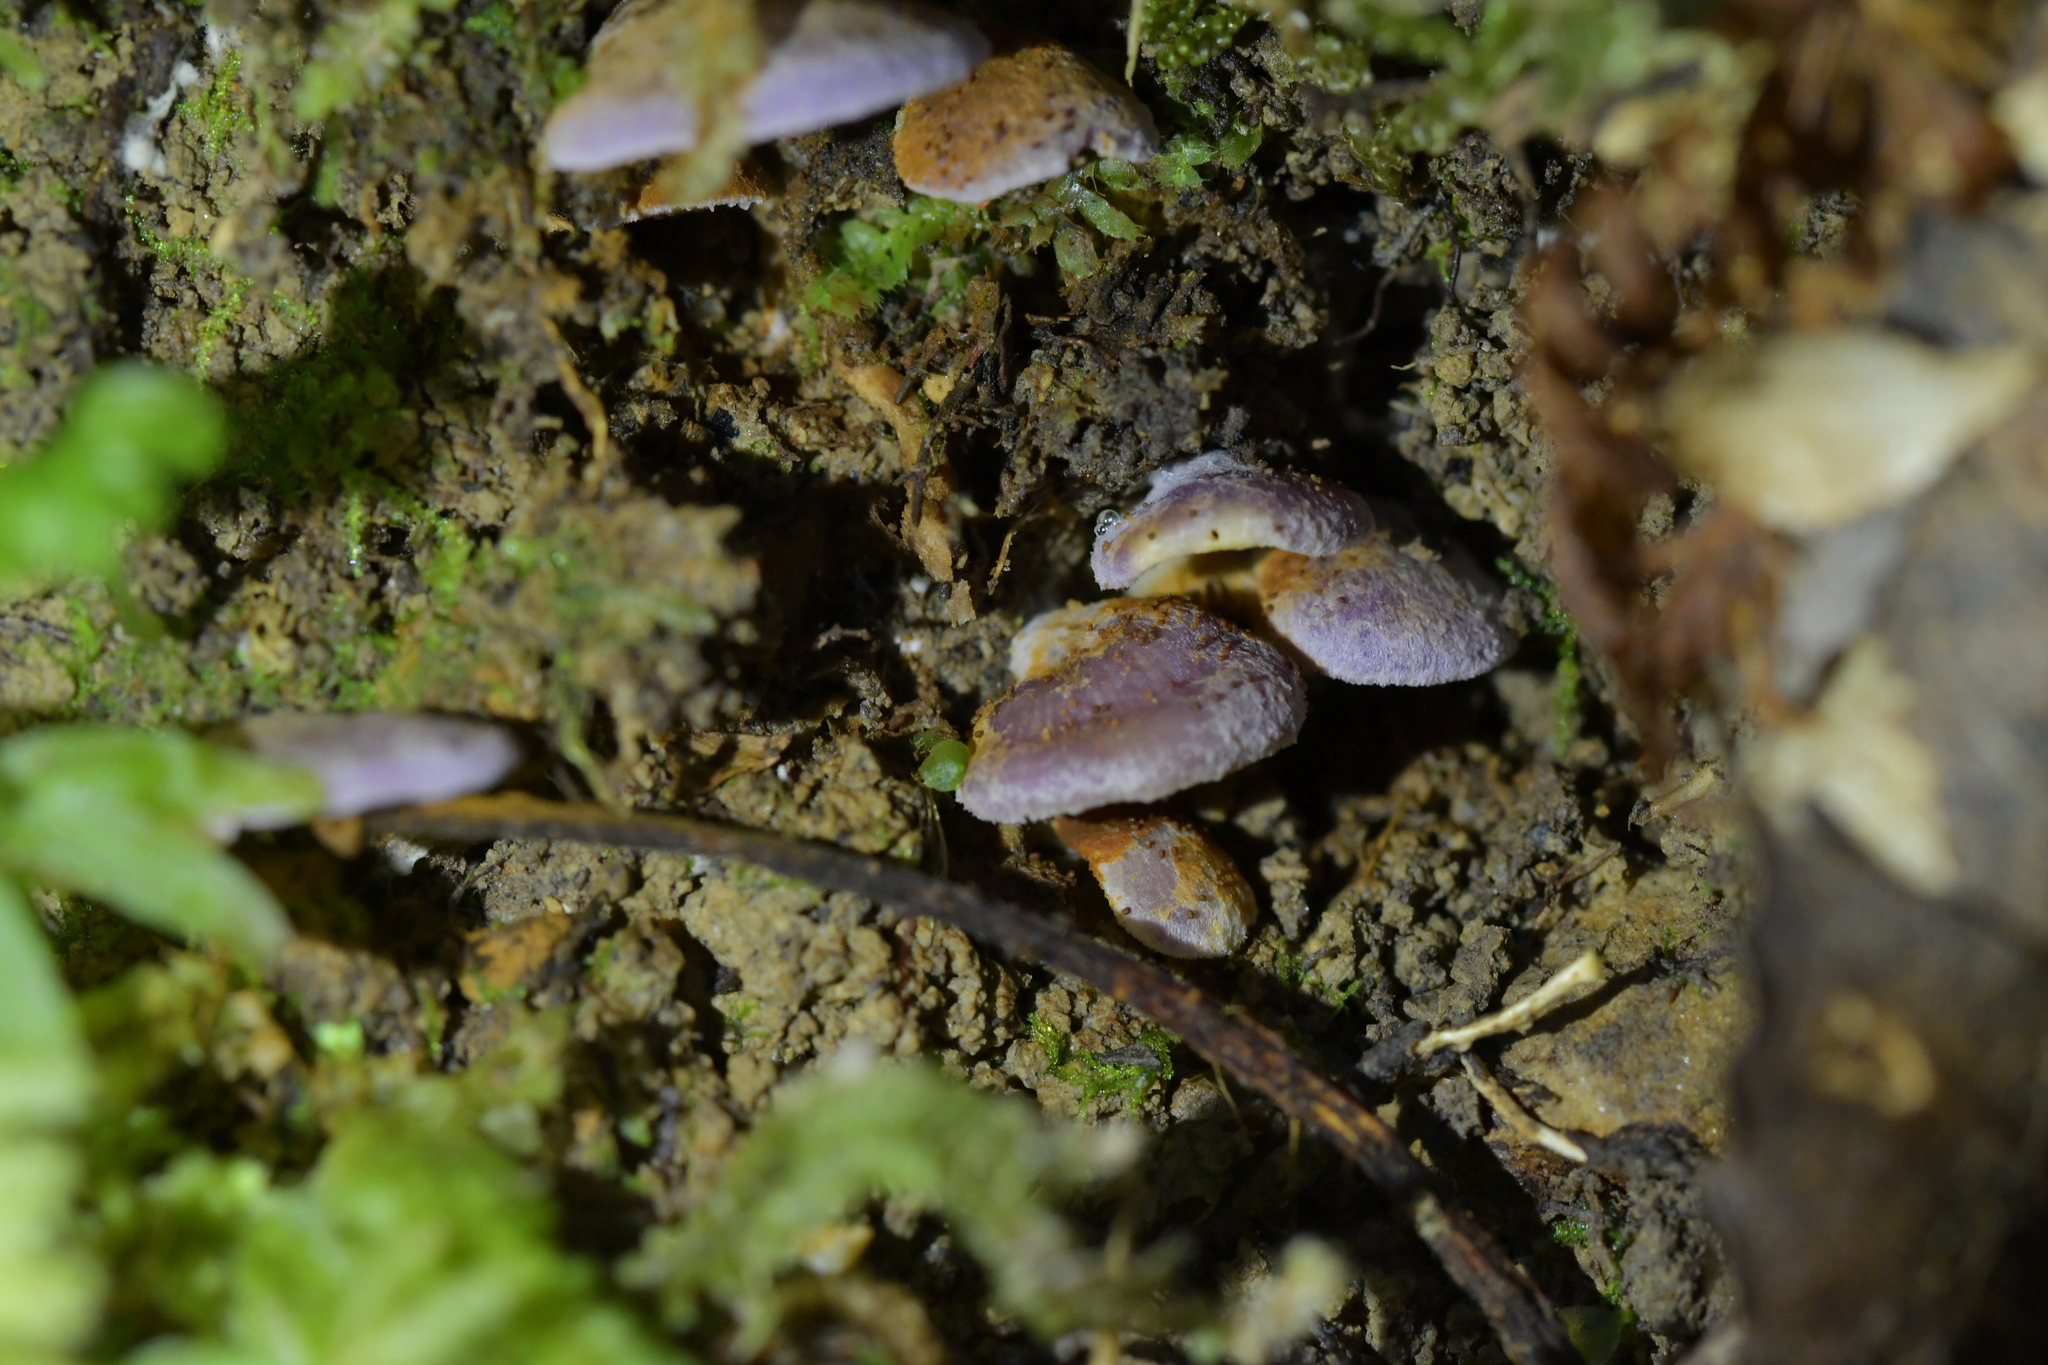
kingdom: Fungi
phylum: Basidiomycota
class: Agaricomycetes
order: Agaricales
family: Cortinariaceae
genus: Pyrrhoglossum
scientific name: Pyrrhoglossum pyrrhum
